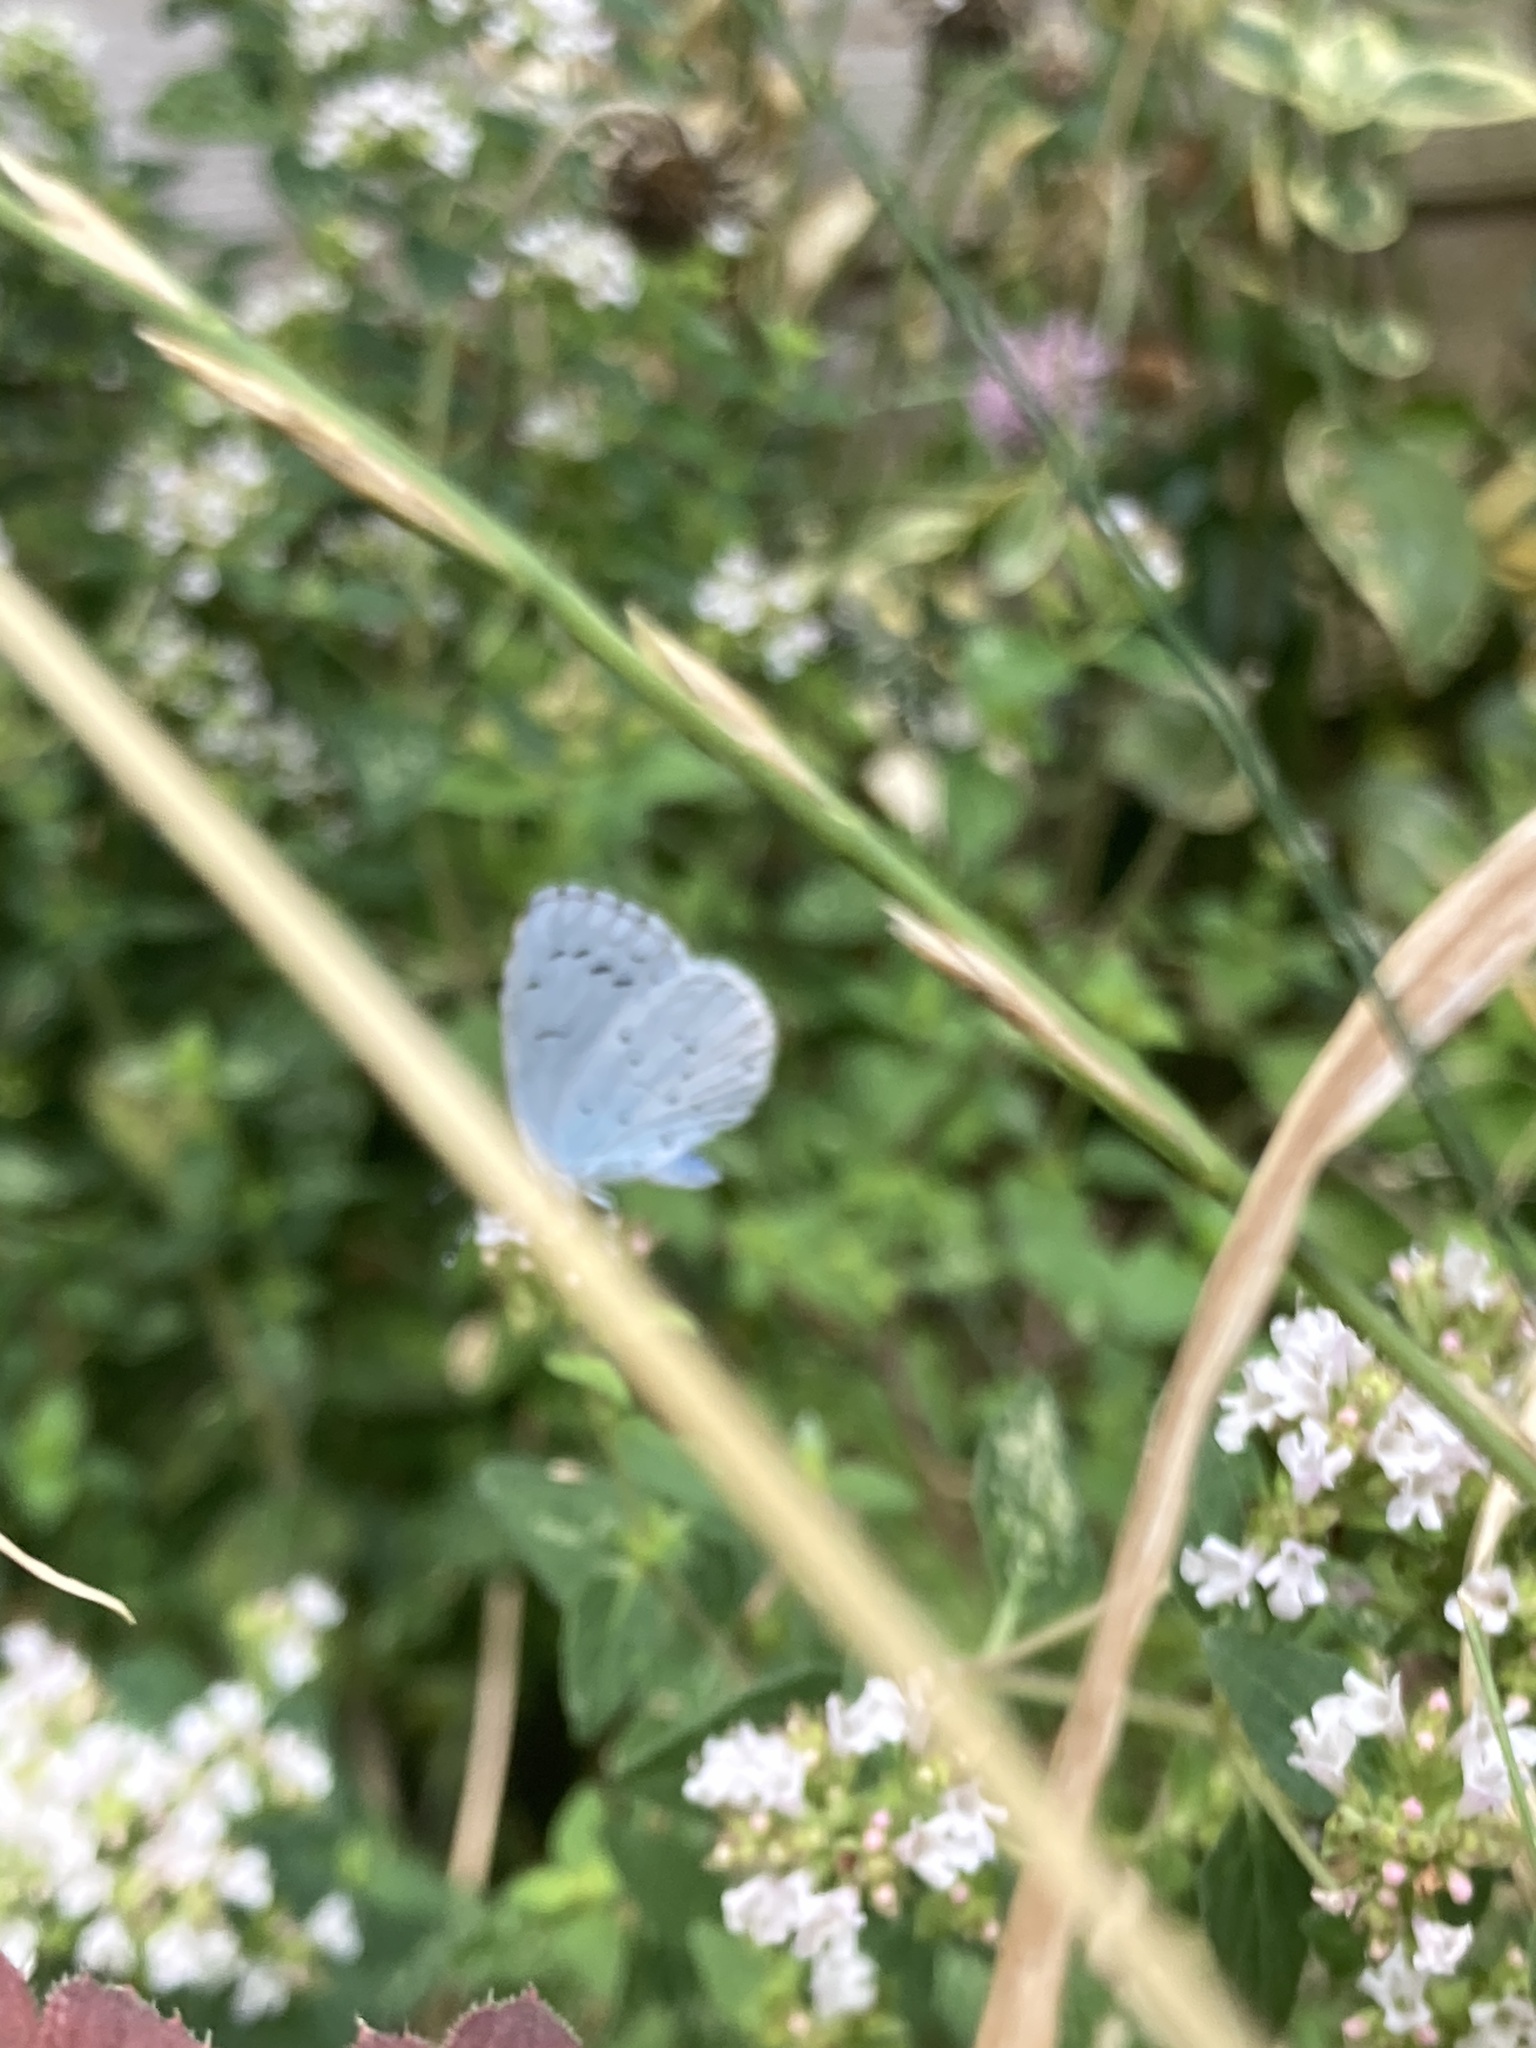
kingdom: Animalia
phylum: Arthropoda
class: Insecta
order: Lepidoptera
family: Lycaenidae
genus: Celastrina
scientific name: Celastrina argiolus
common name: Holly blue
